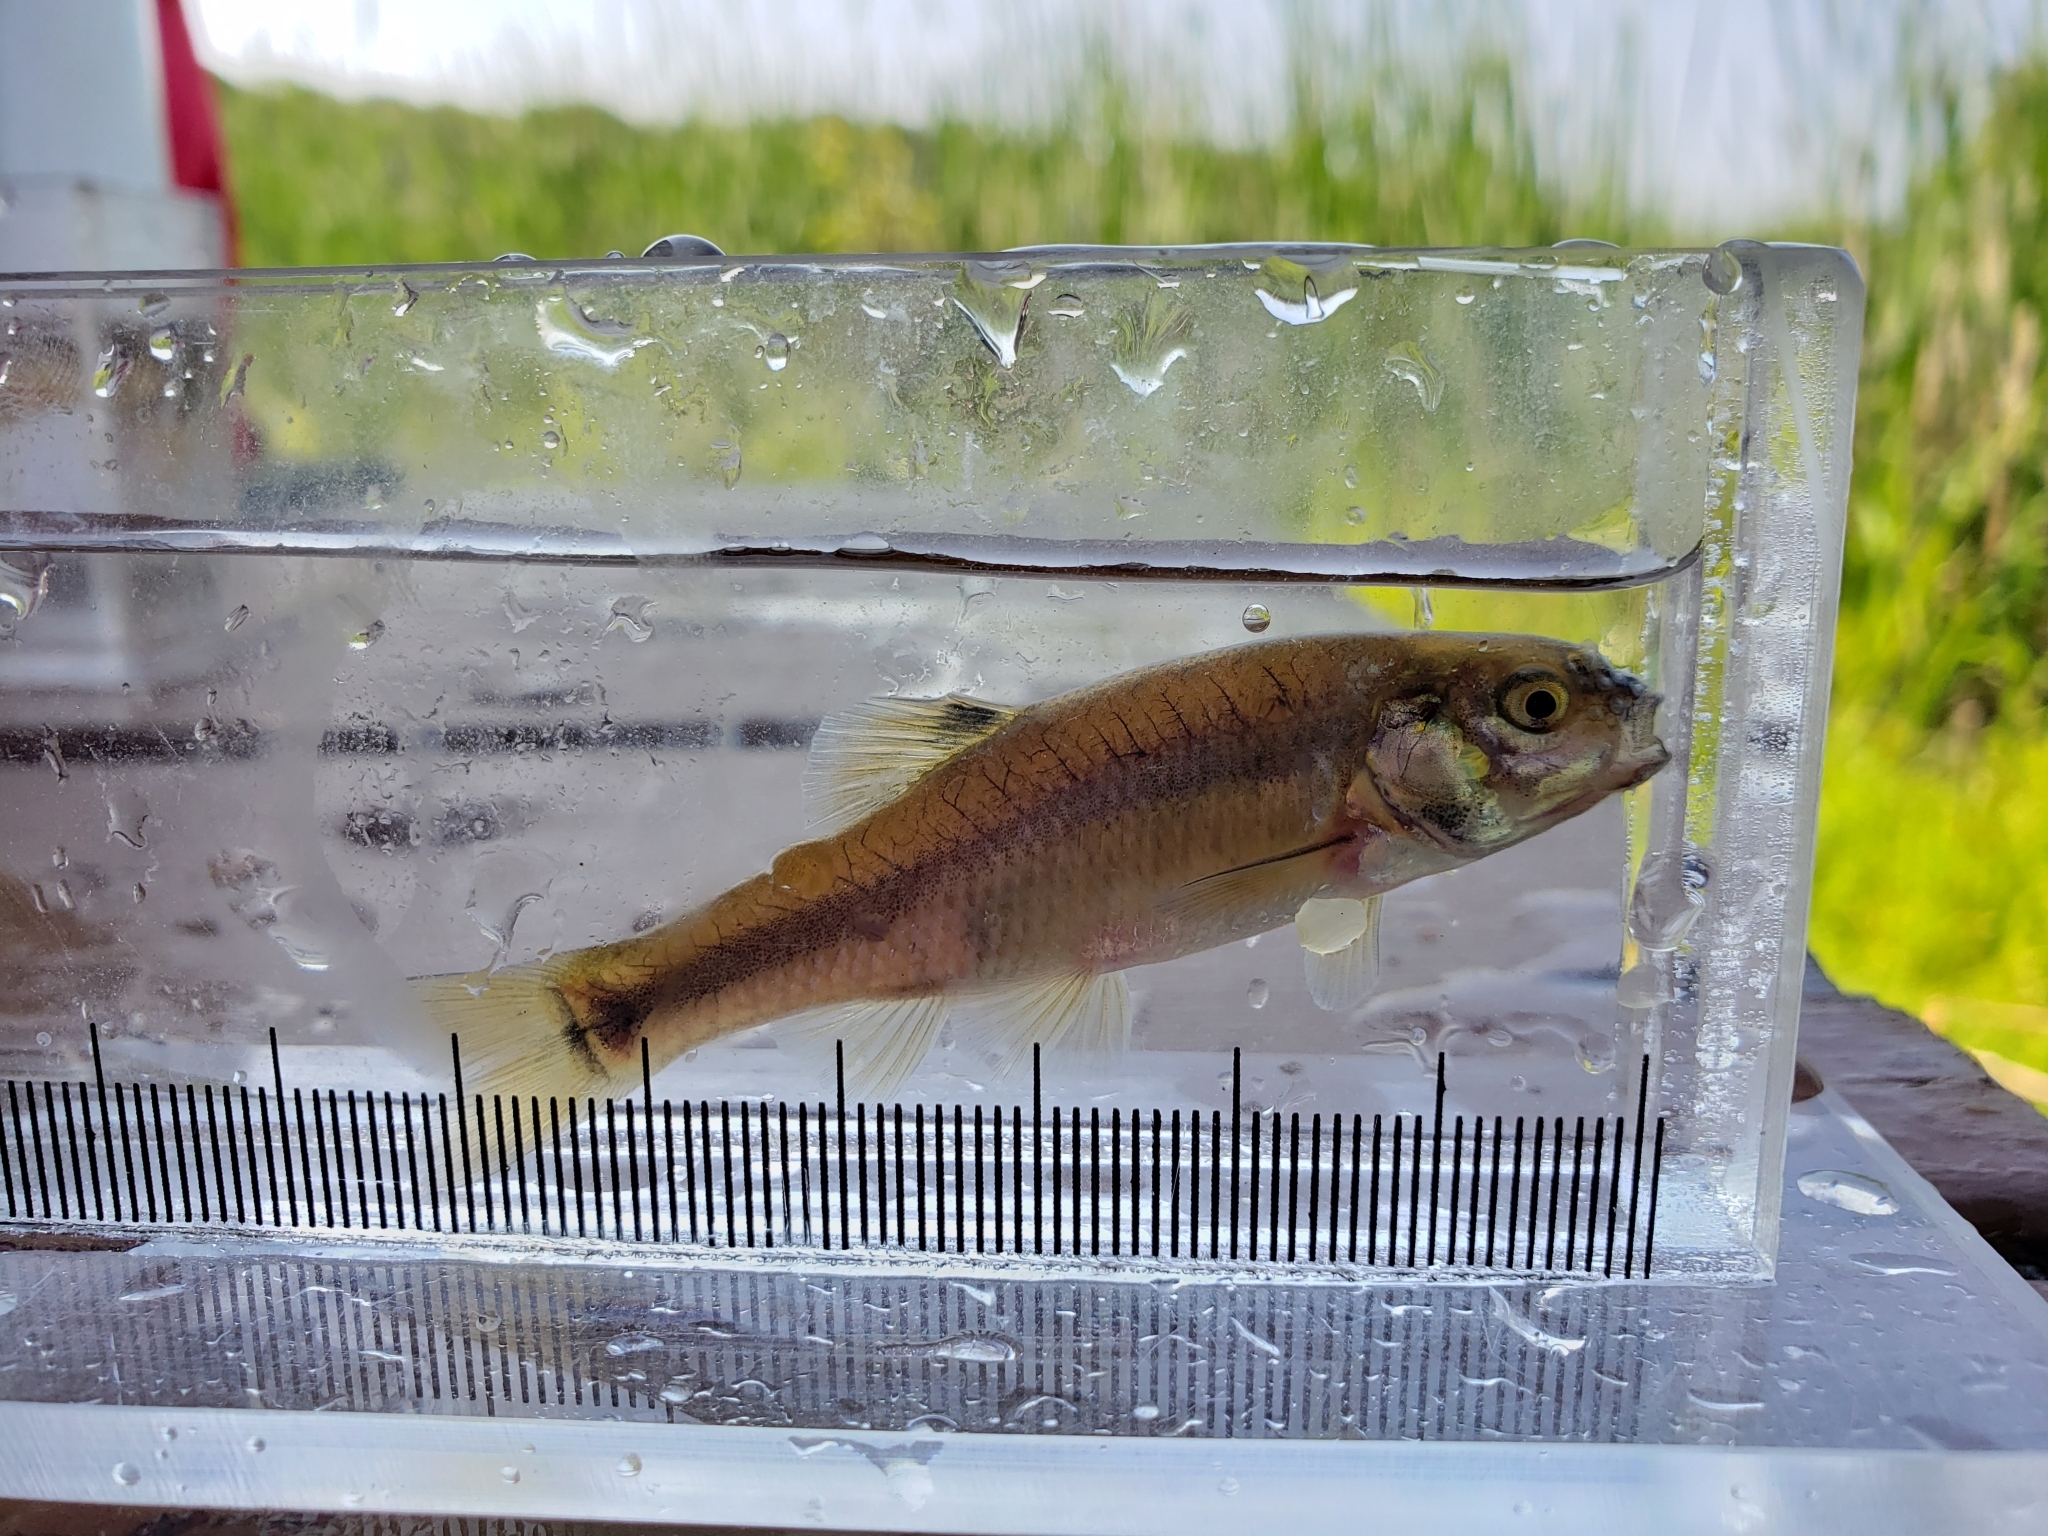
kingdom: Animalia
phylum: Chordata
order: Cypriniformes
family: Cyprinidae
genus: Pimephales
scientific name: Pimephales promelas
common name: Fathead minnow
